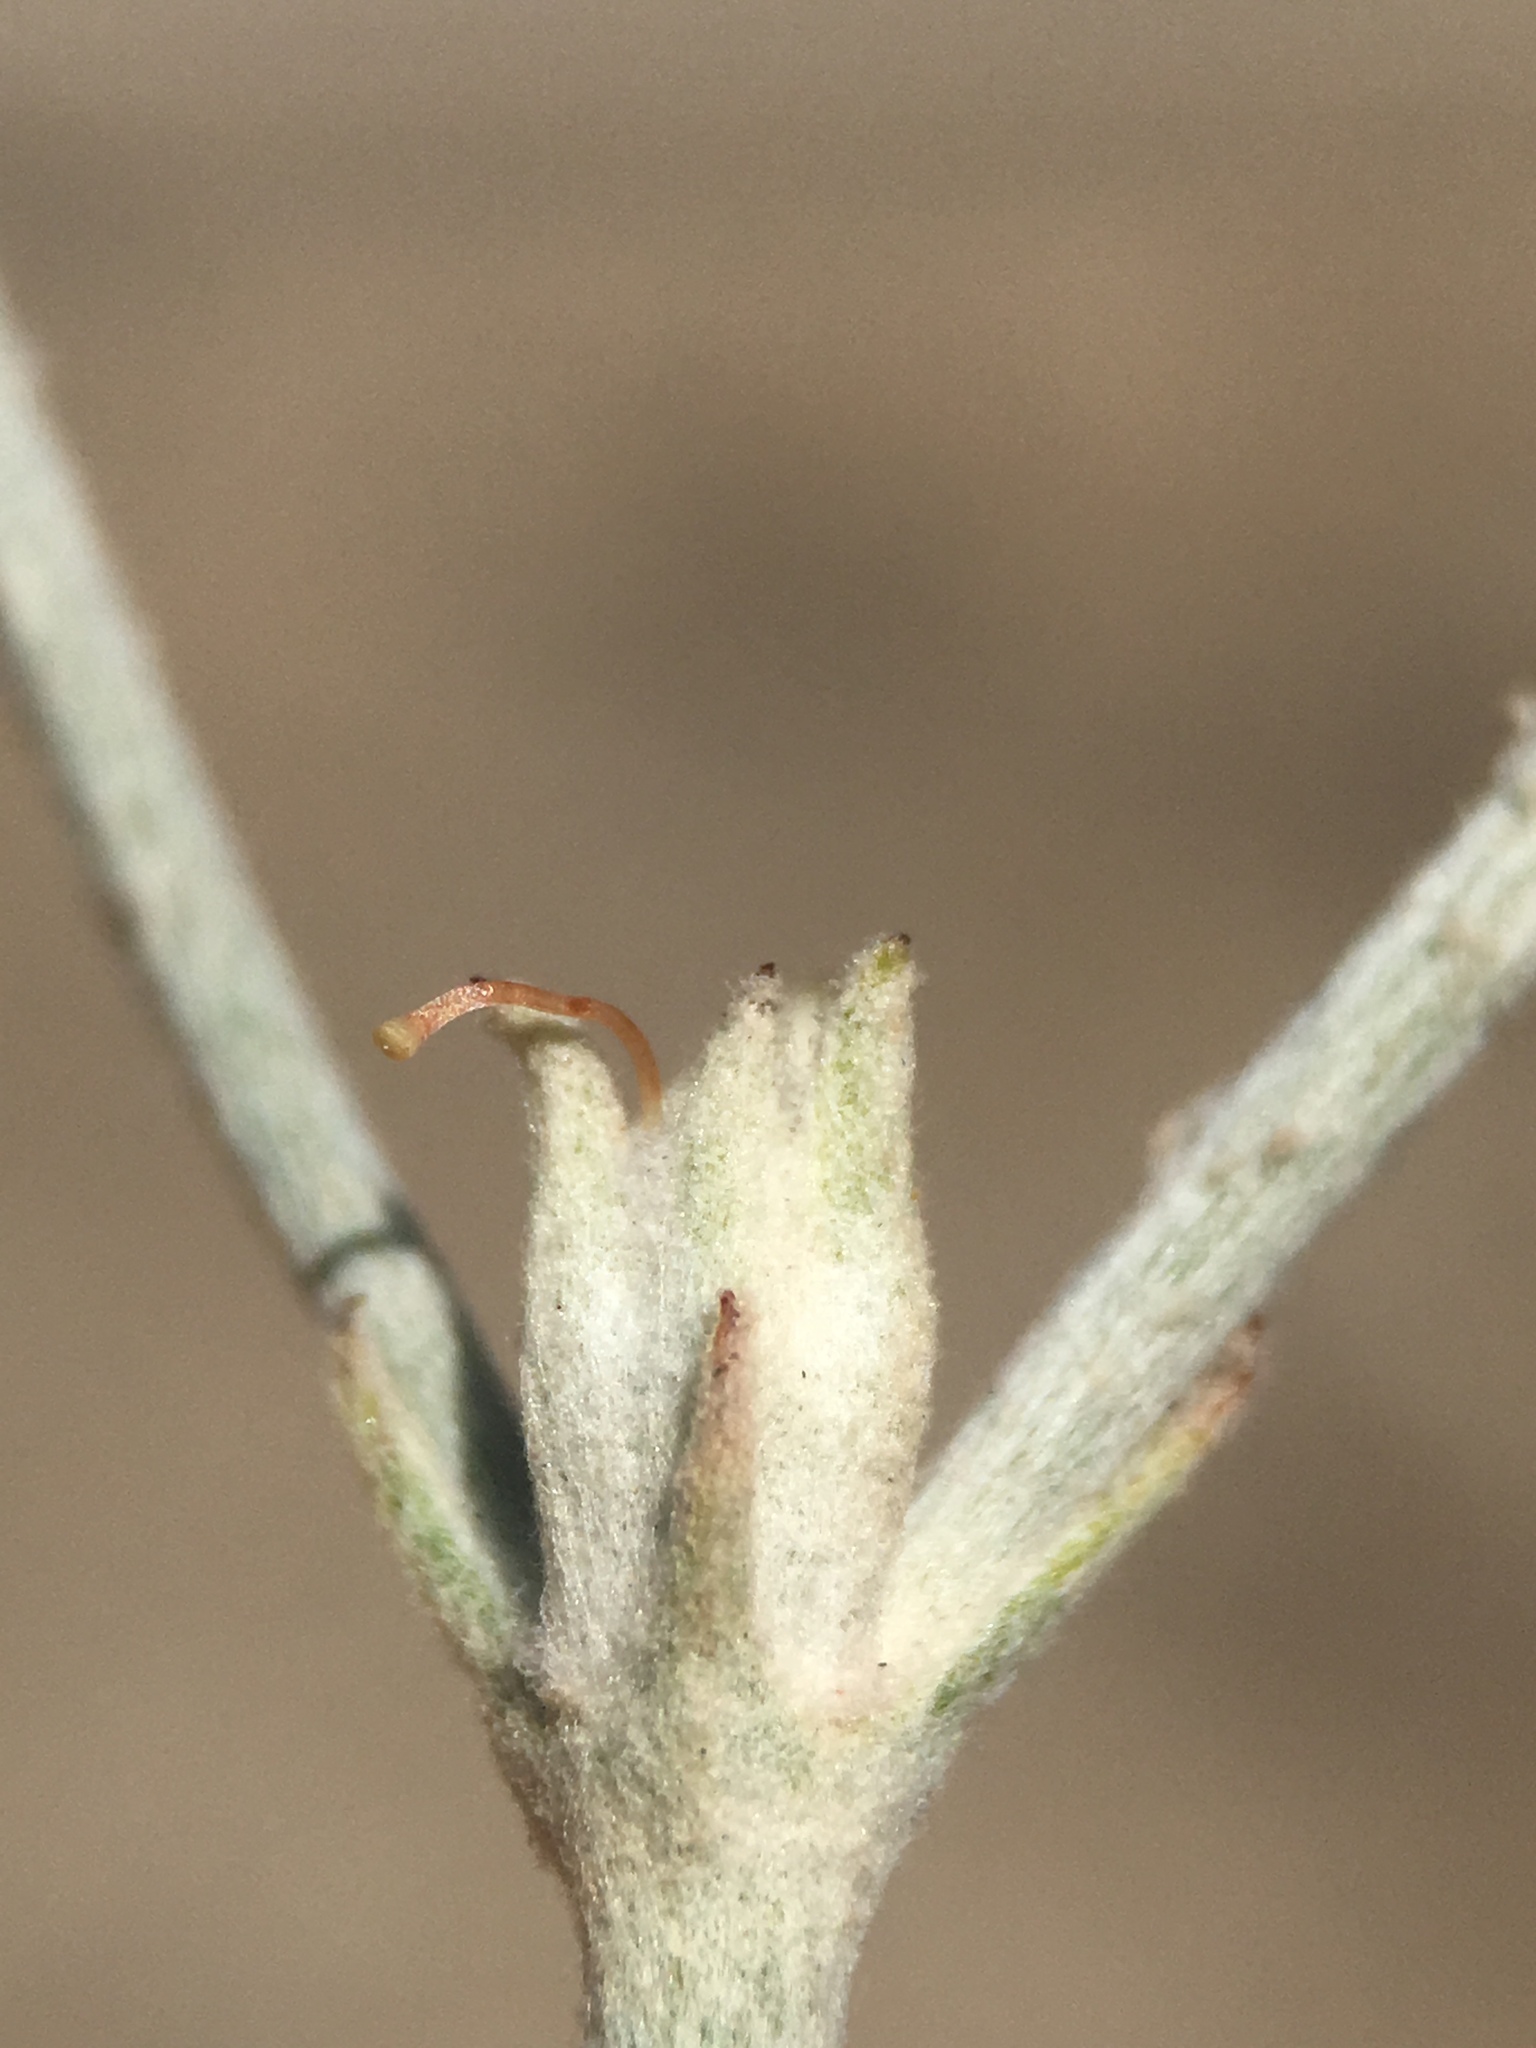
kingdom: Plantae
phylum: Tracheophyta
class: Magnoliopsida
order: Caryophyllales
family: Polygonaceae
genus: Eriogonum
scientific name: Eriogonum niveum
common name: Snow wild buckwheat
